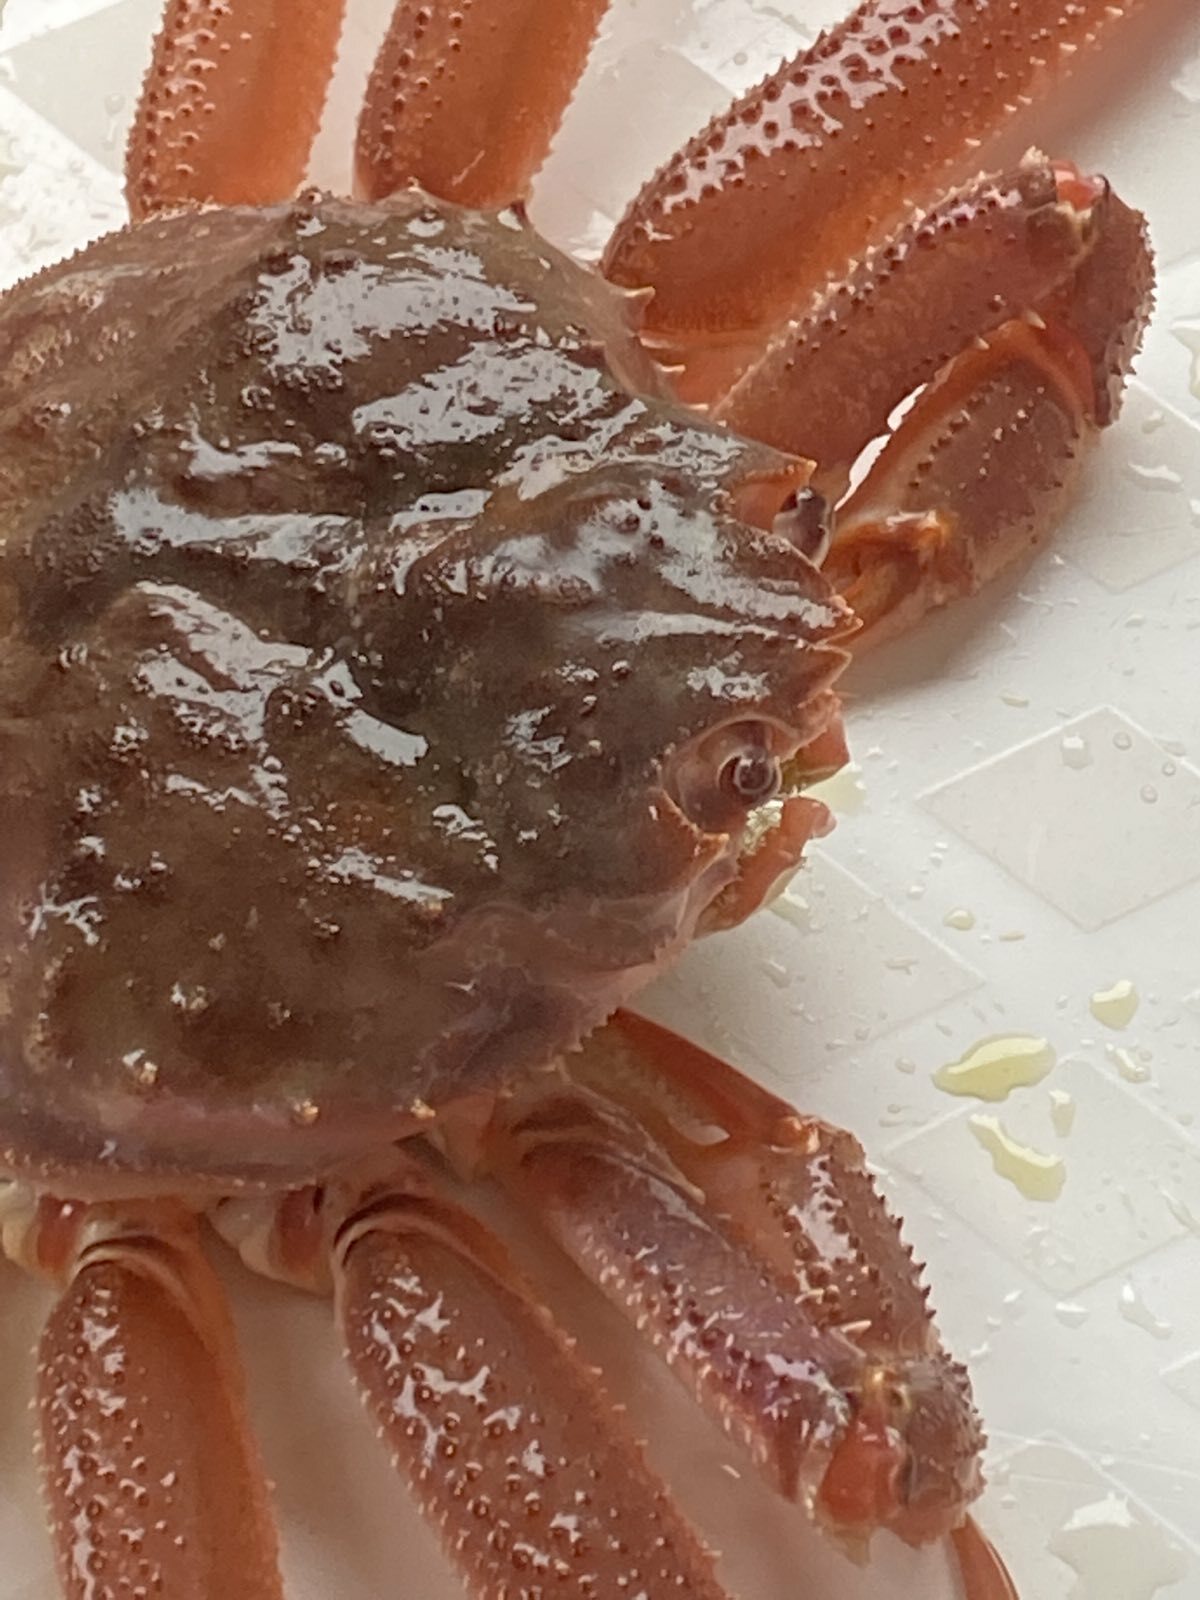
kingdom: Animalia
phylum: Arthropoda
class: Malacostraca
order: Decapoda
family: Oregoniidae
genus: Chionoecetes
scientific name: Chionoecetes opilio
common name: Atlantic snow crab
